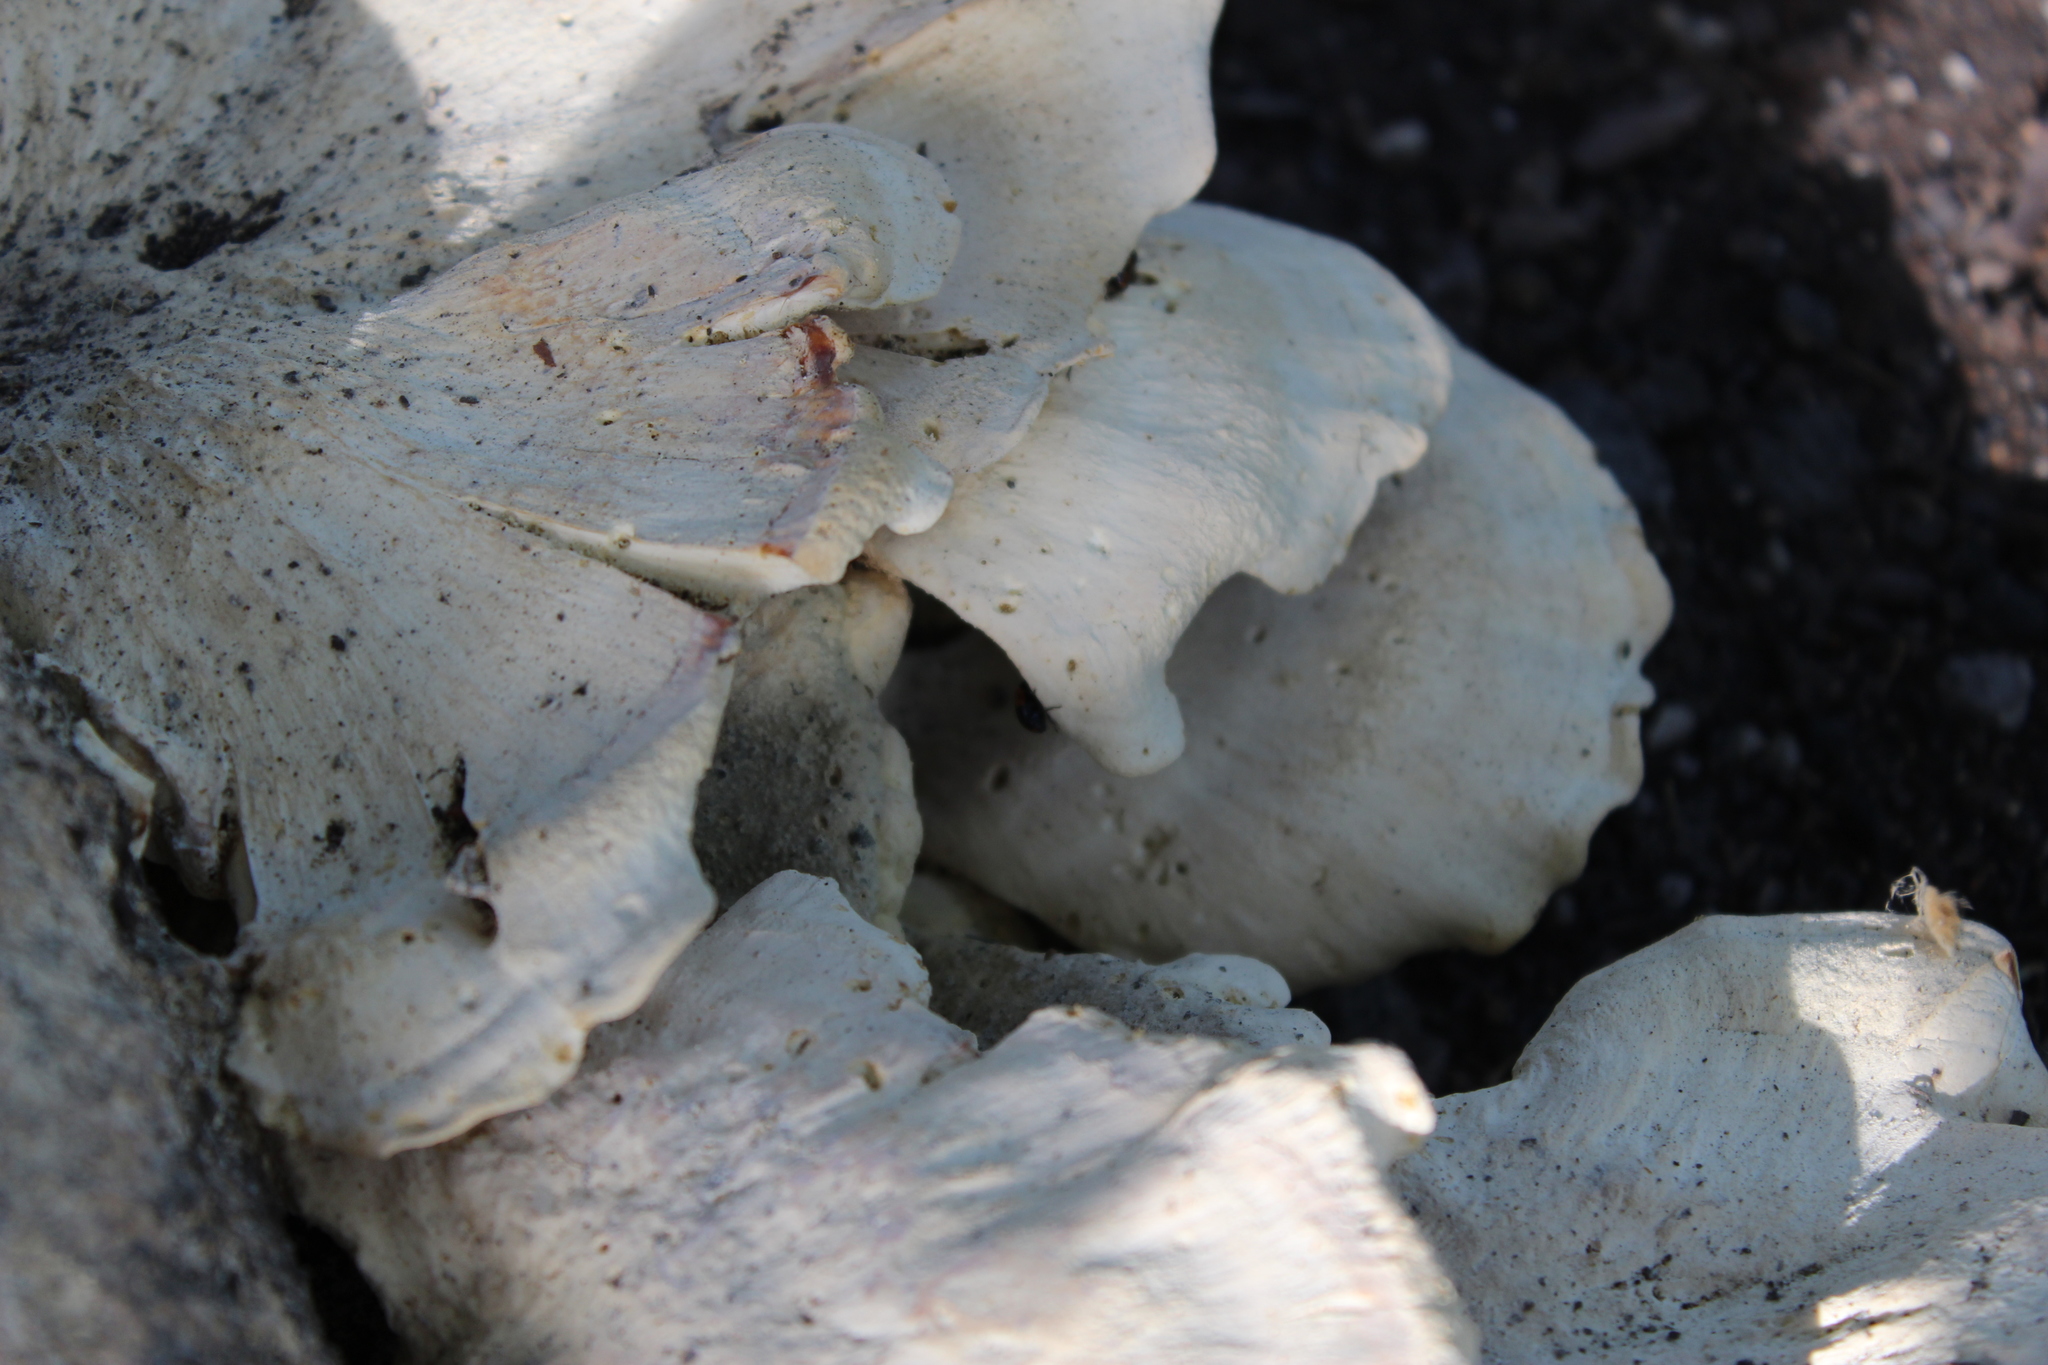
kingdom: Fungi
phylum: Basidiomycota
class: Agaricomycetes
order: Russulales
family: Bondarzewiaceae
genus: Bondarzewia
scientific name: Bondarzewia berkeleyi
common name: Berkeley's polypore
